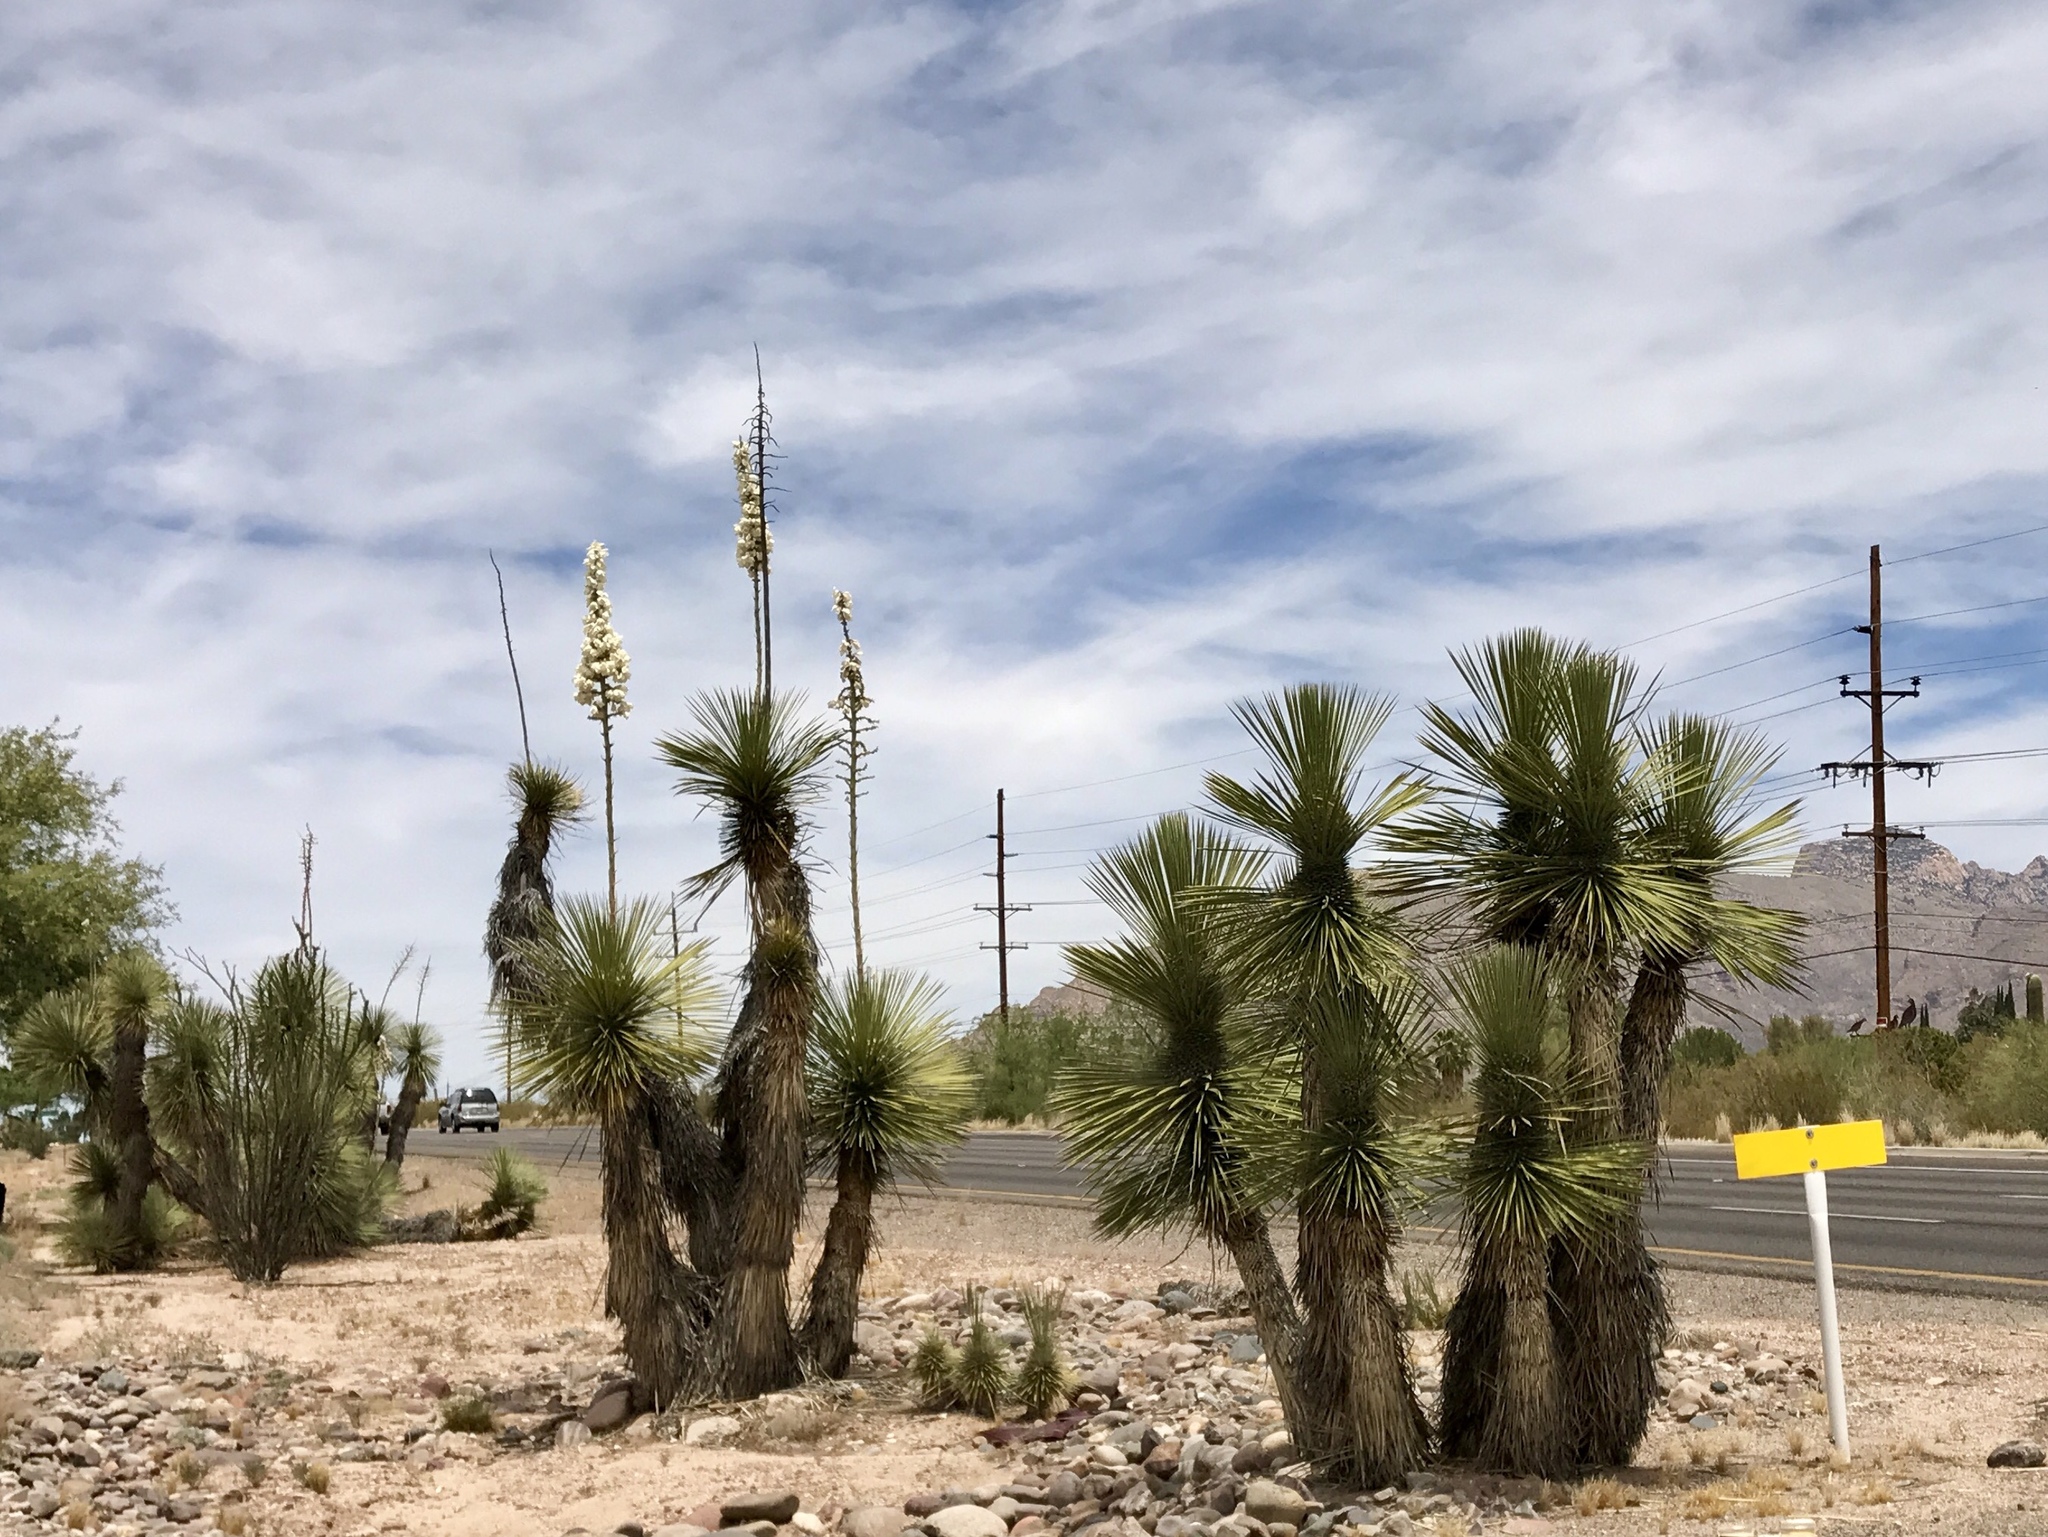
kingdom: Plantae
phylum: Tracheophyta
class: Liliopsida
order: Asparagales
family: Asparagaceae
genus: Yucca
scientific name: Yucca elata
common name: Palmella
